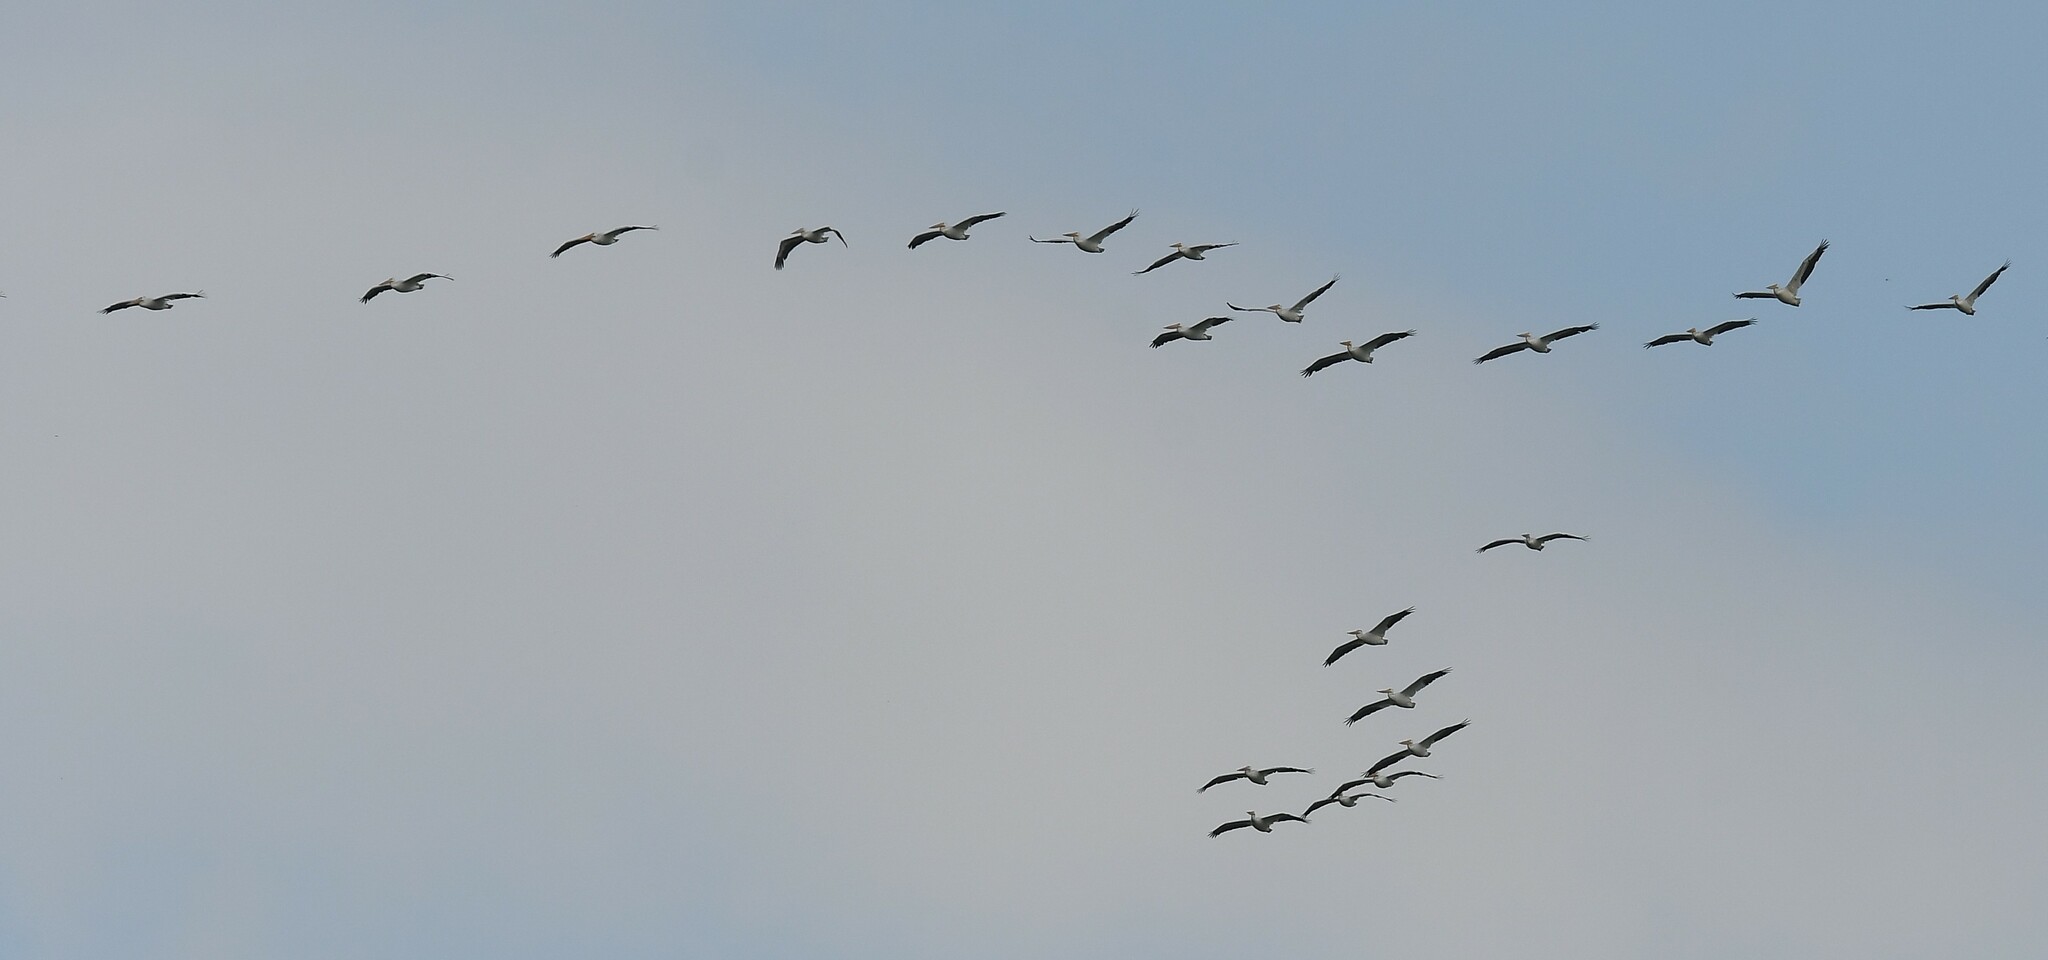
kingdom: Animalia
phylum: Chordata
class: Aves
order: Pelecaniformes
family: Pelecanidae
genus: Pelecanus
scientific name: Pelecanus erythrorhynchos
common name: American white pelican
